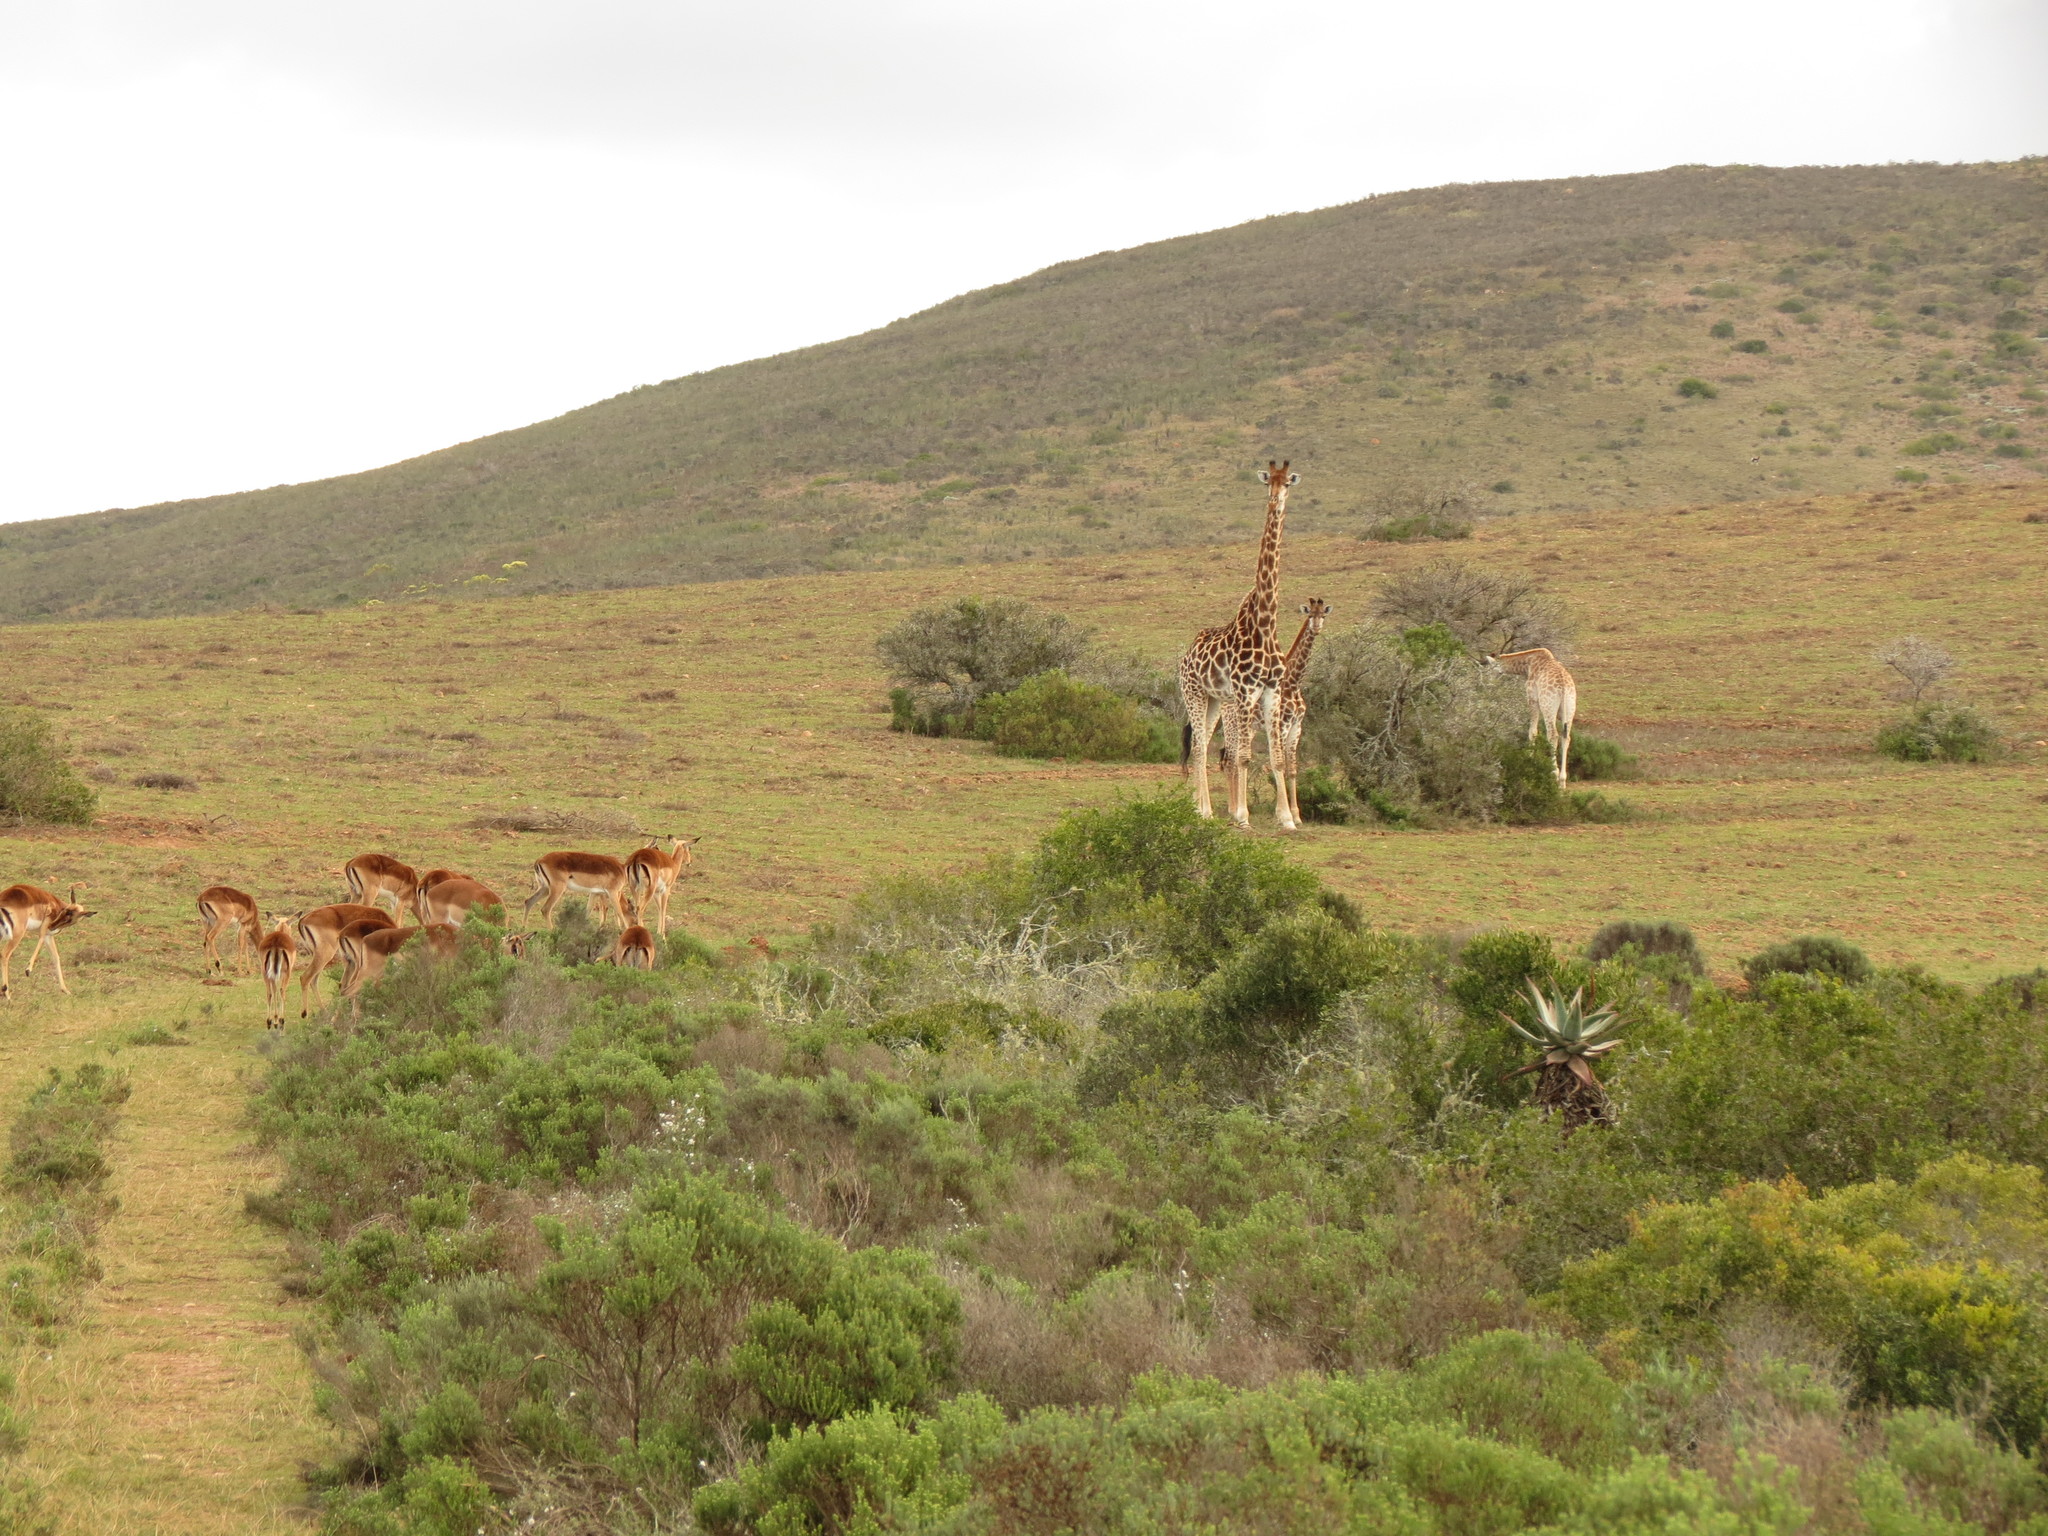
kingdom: Animalia
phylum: Chordata
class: Mammalia
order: Artiodactyla
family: Giraffidae
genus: Giraffa
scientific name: Giraffa giraffa
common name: Southern giraffe
